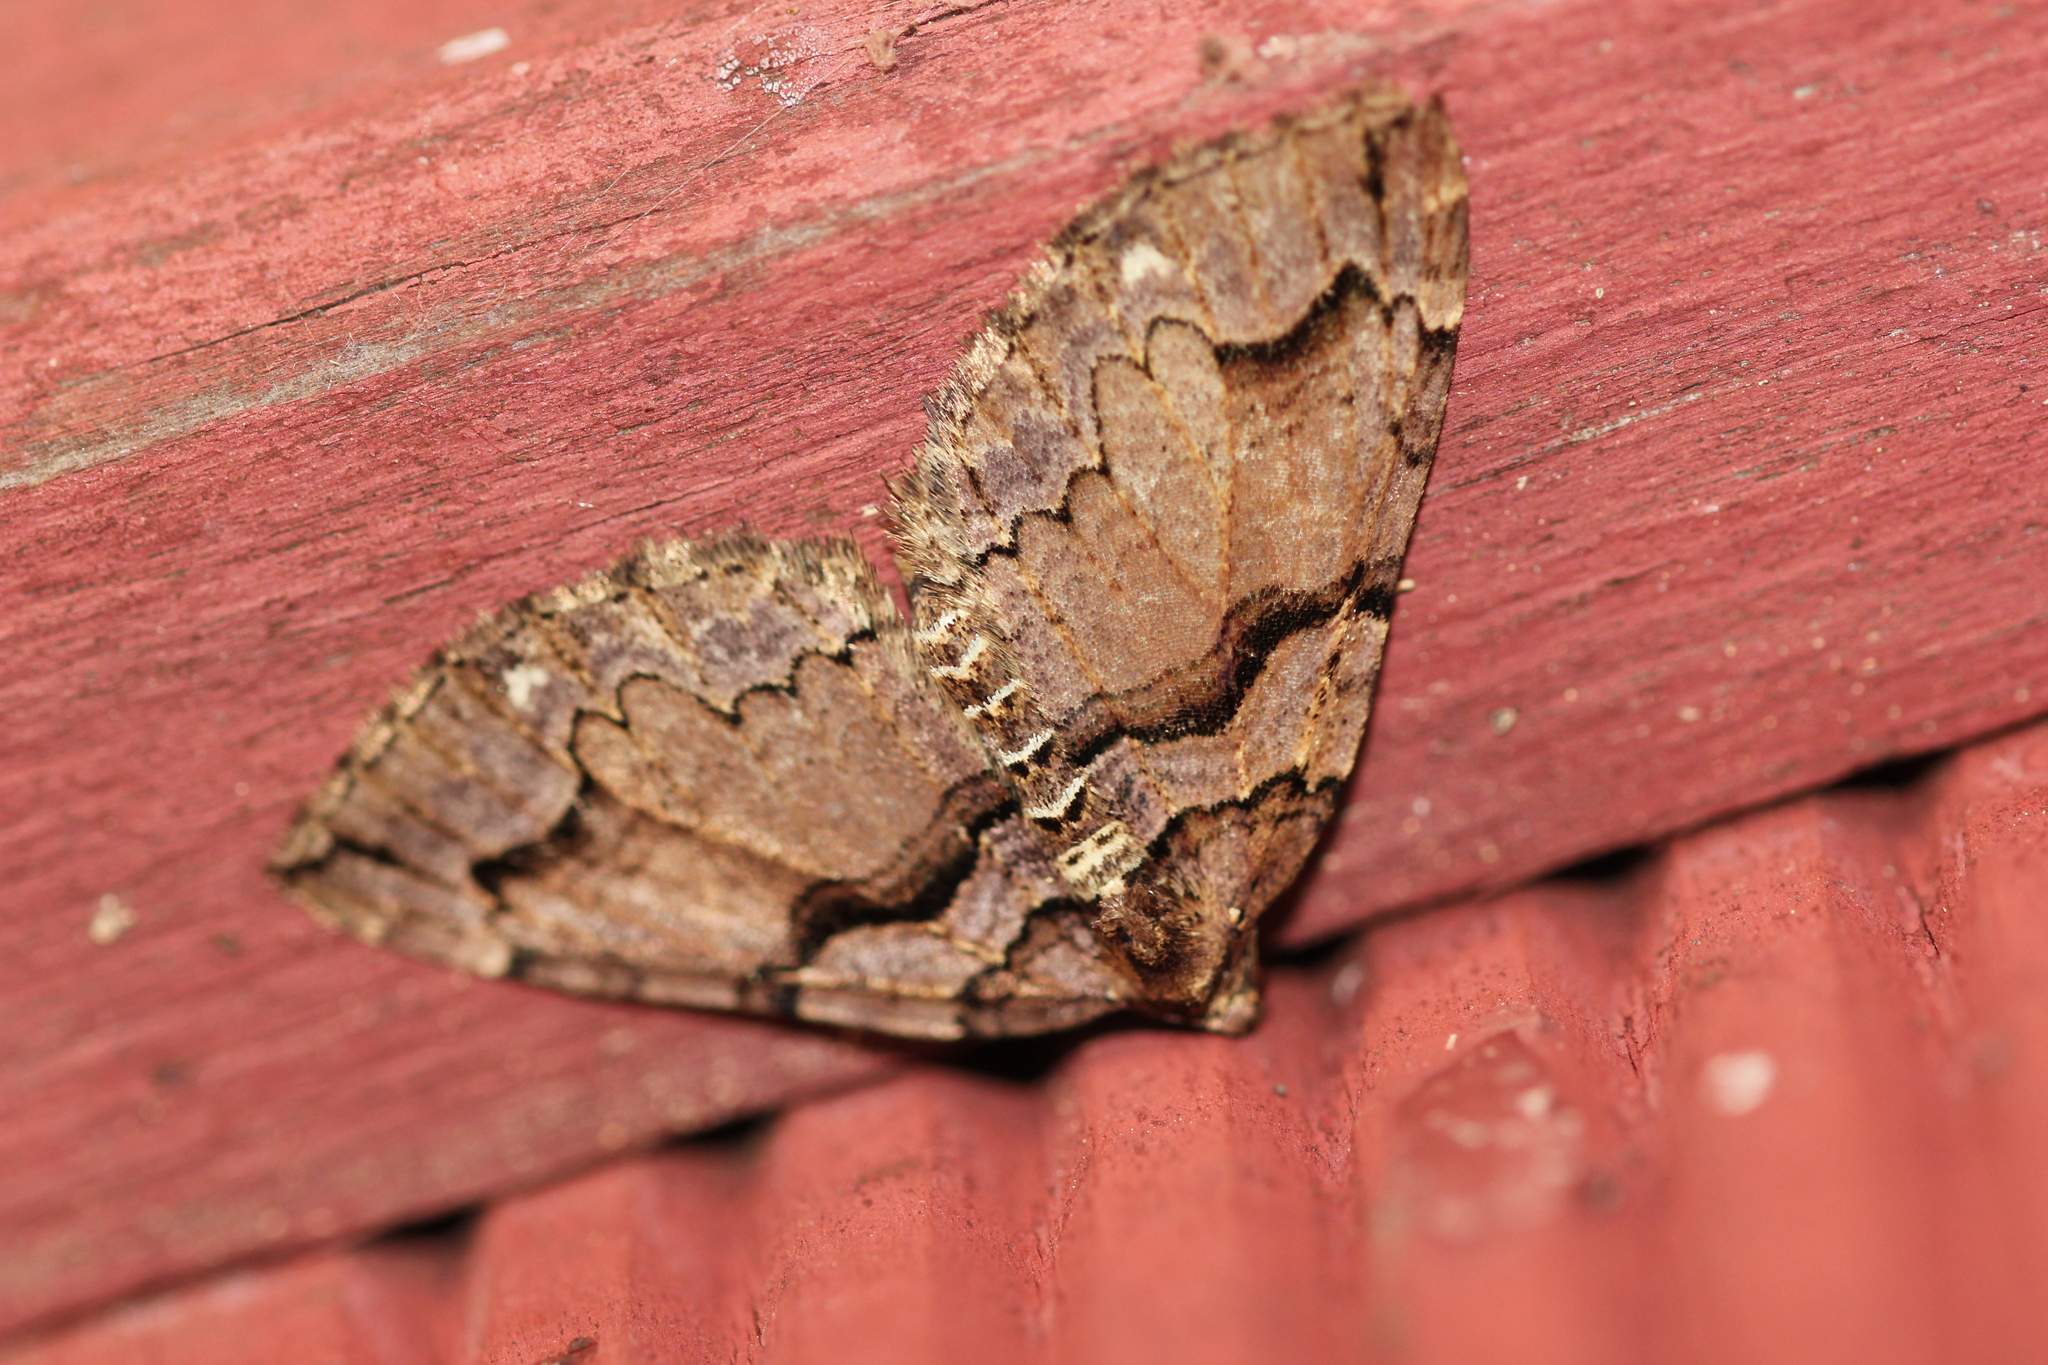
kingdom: Animalia
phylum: Arthropoda
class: Insecta
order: Lepidoptera
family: Geometridae
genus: Anticlea
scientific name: Anticlea vasiliata
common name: Variable carpet
